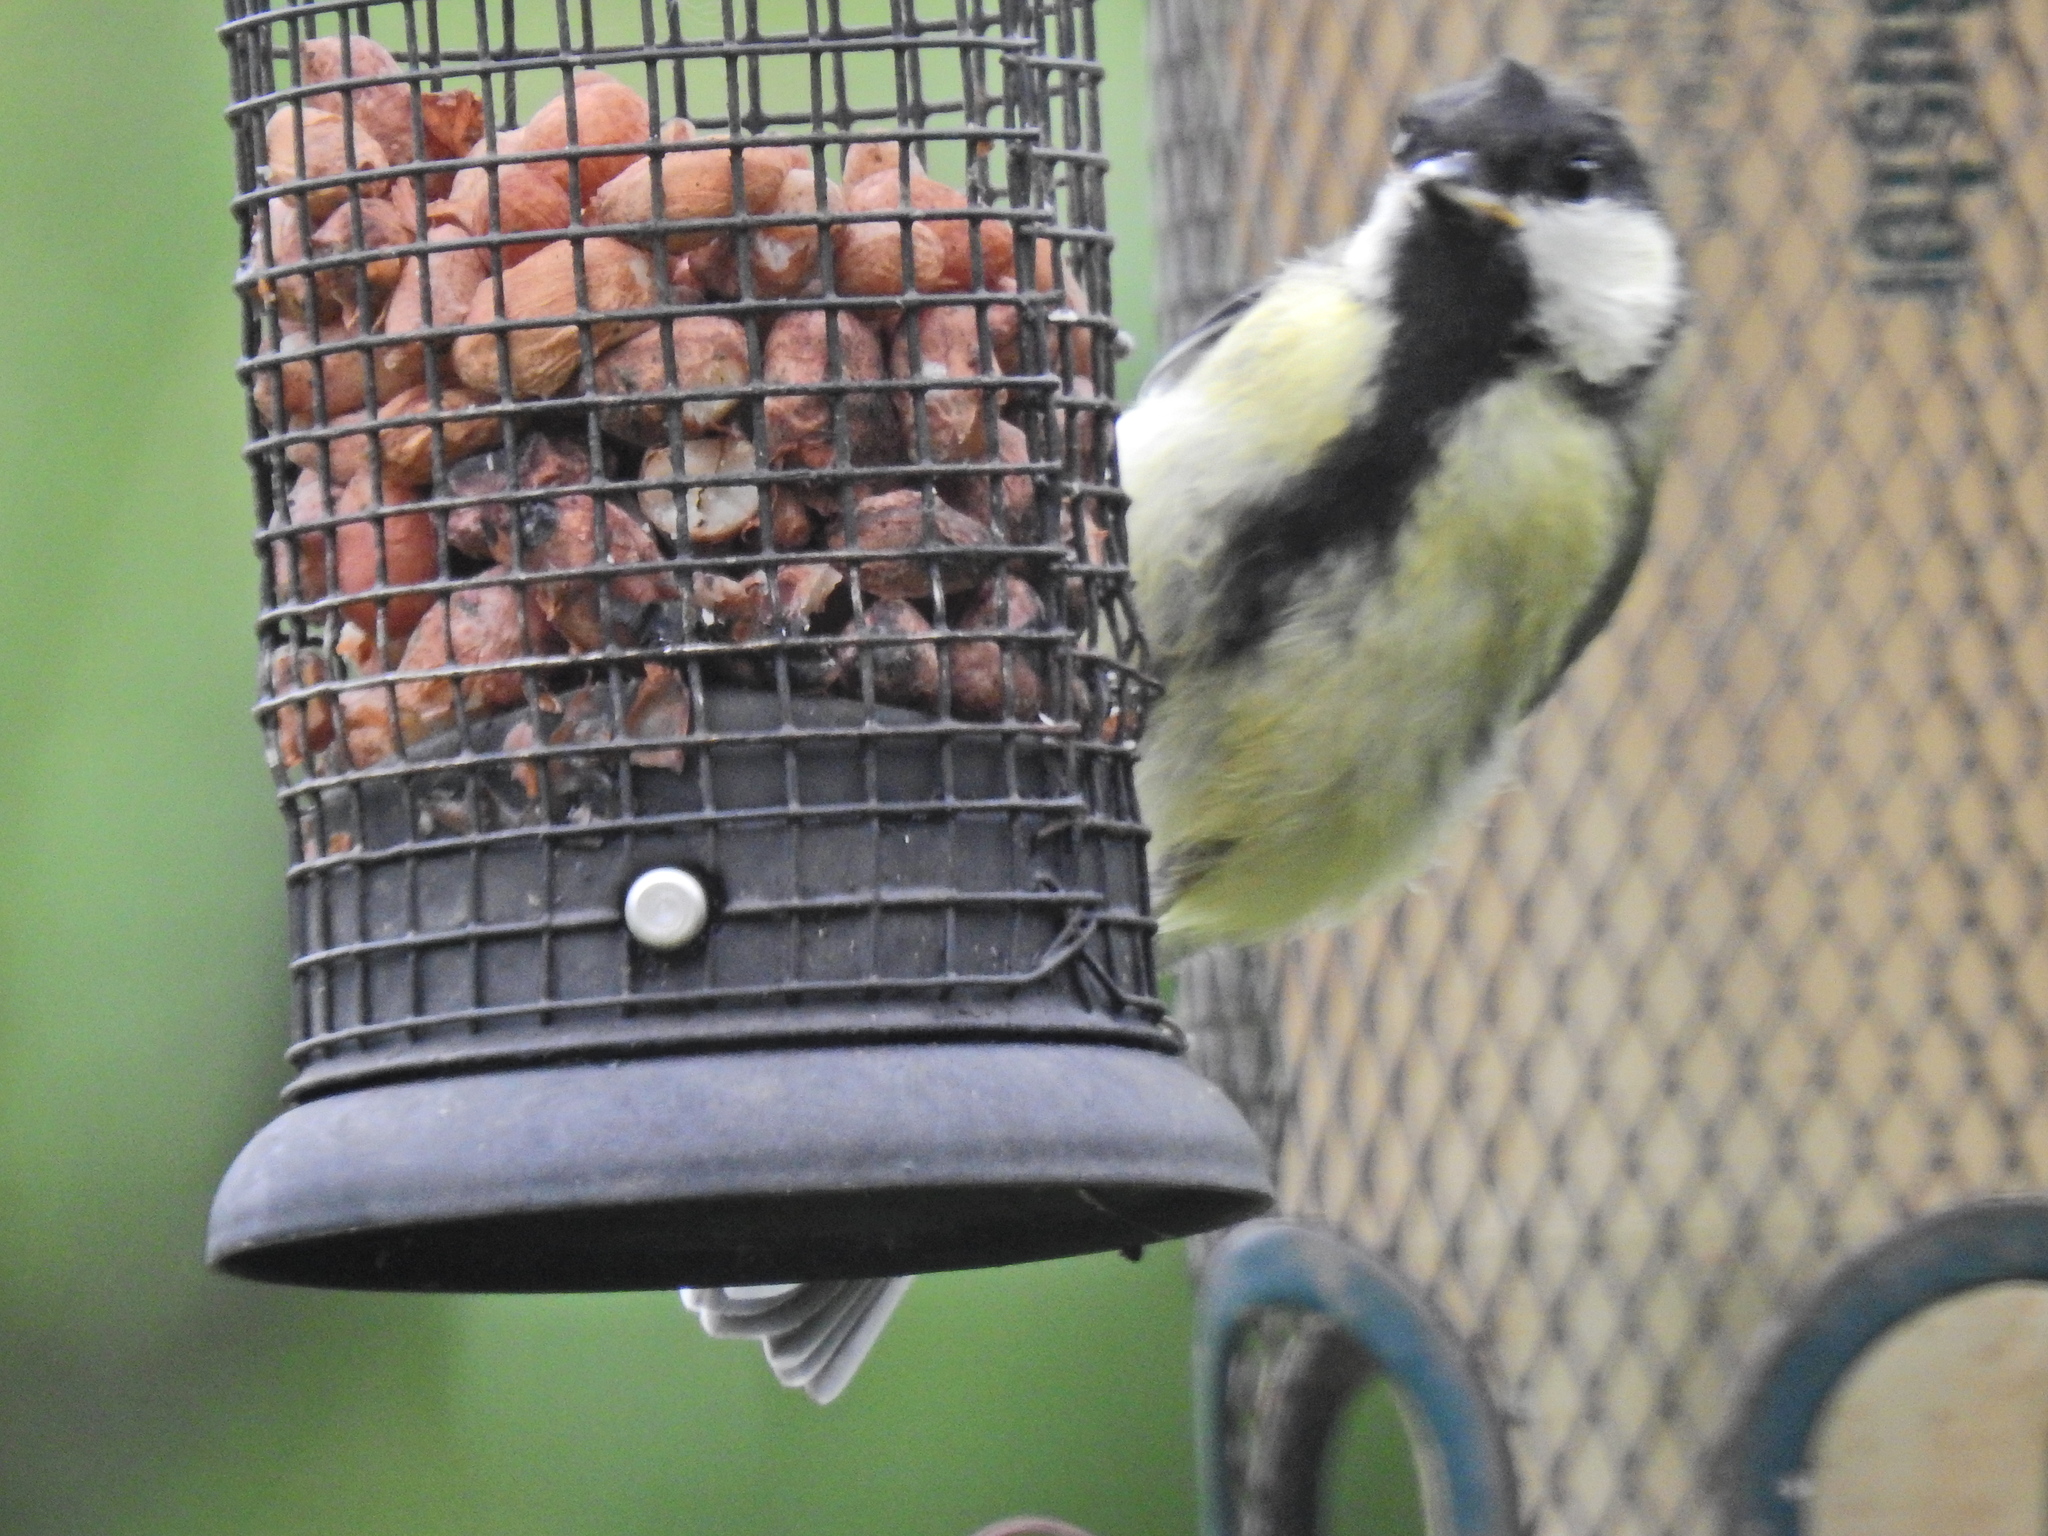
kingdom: Animalia
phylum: Chordata
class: Aves
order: Passeriformes
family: Paridae
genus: Parus
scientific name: Parus major
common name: Great tit
